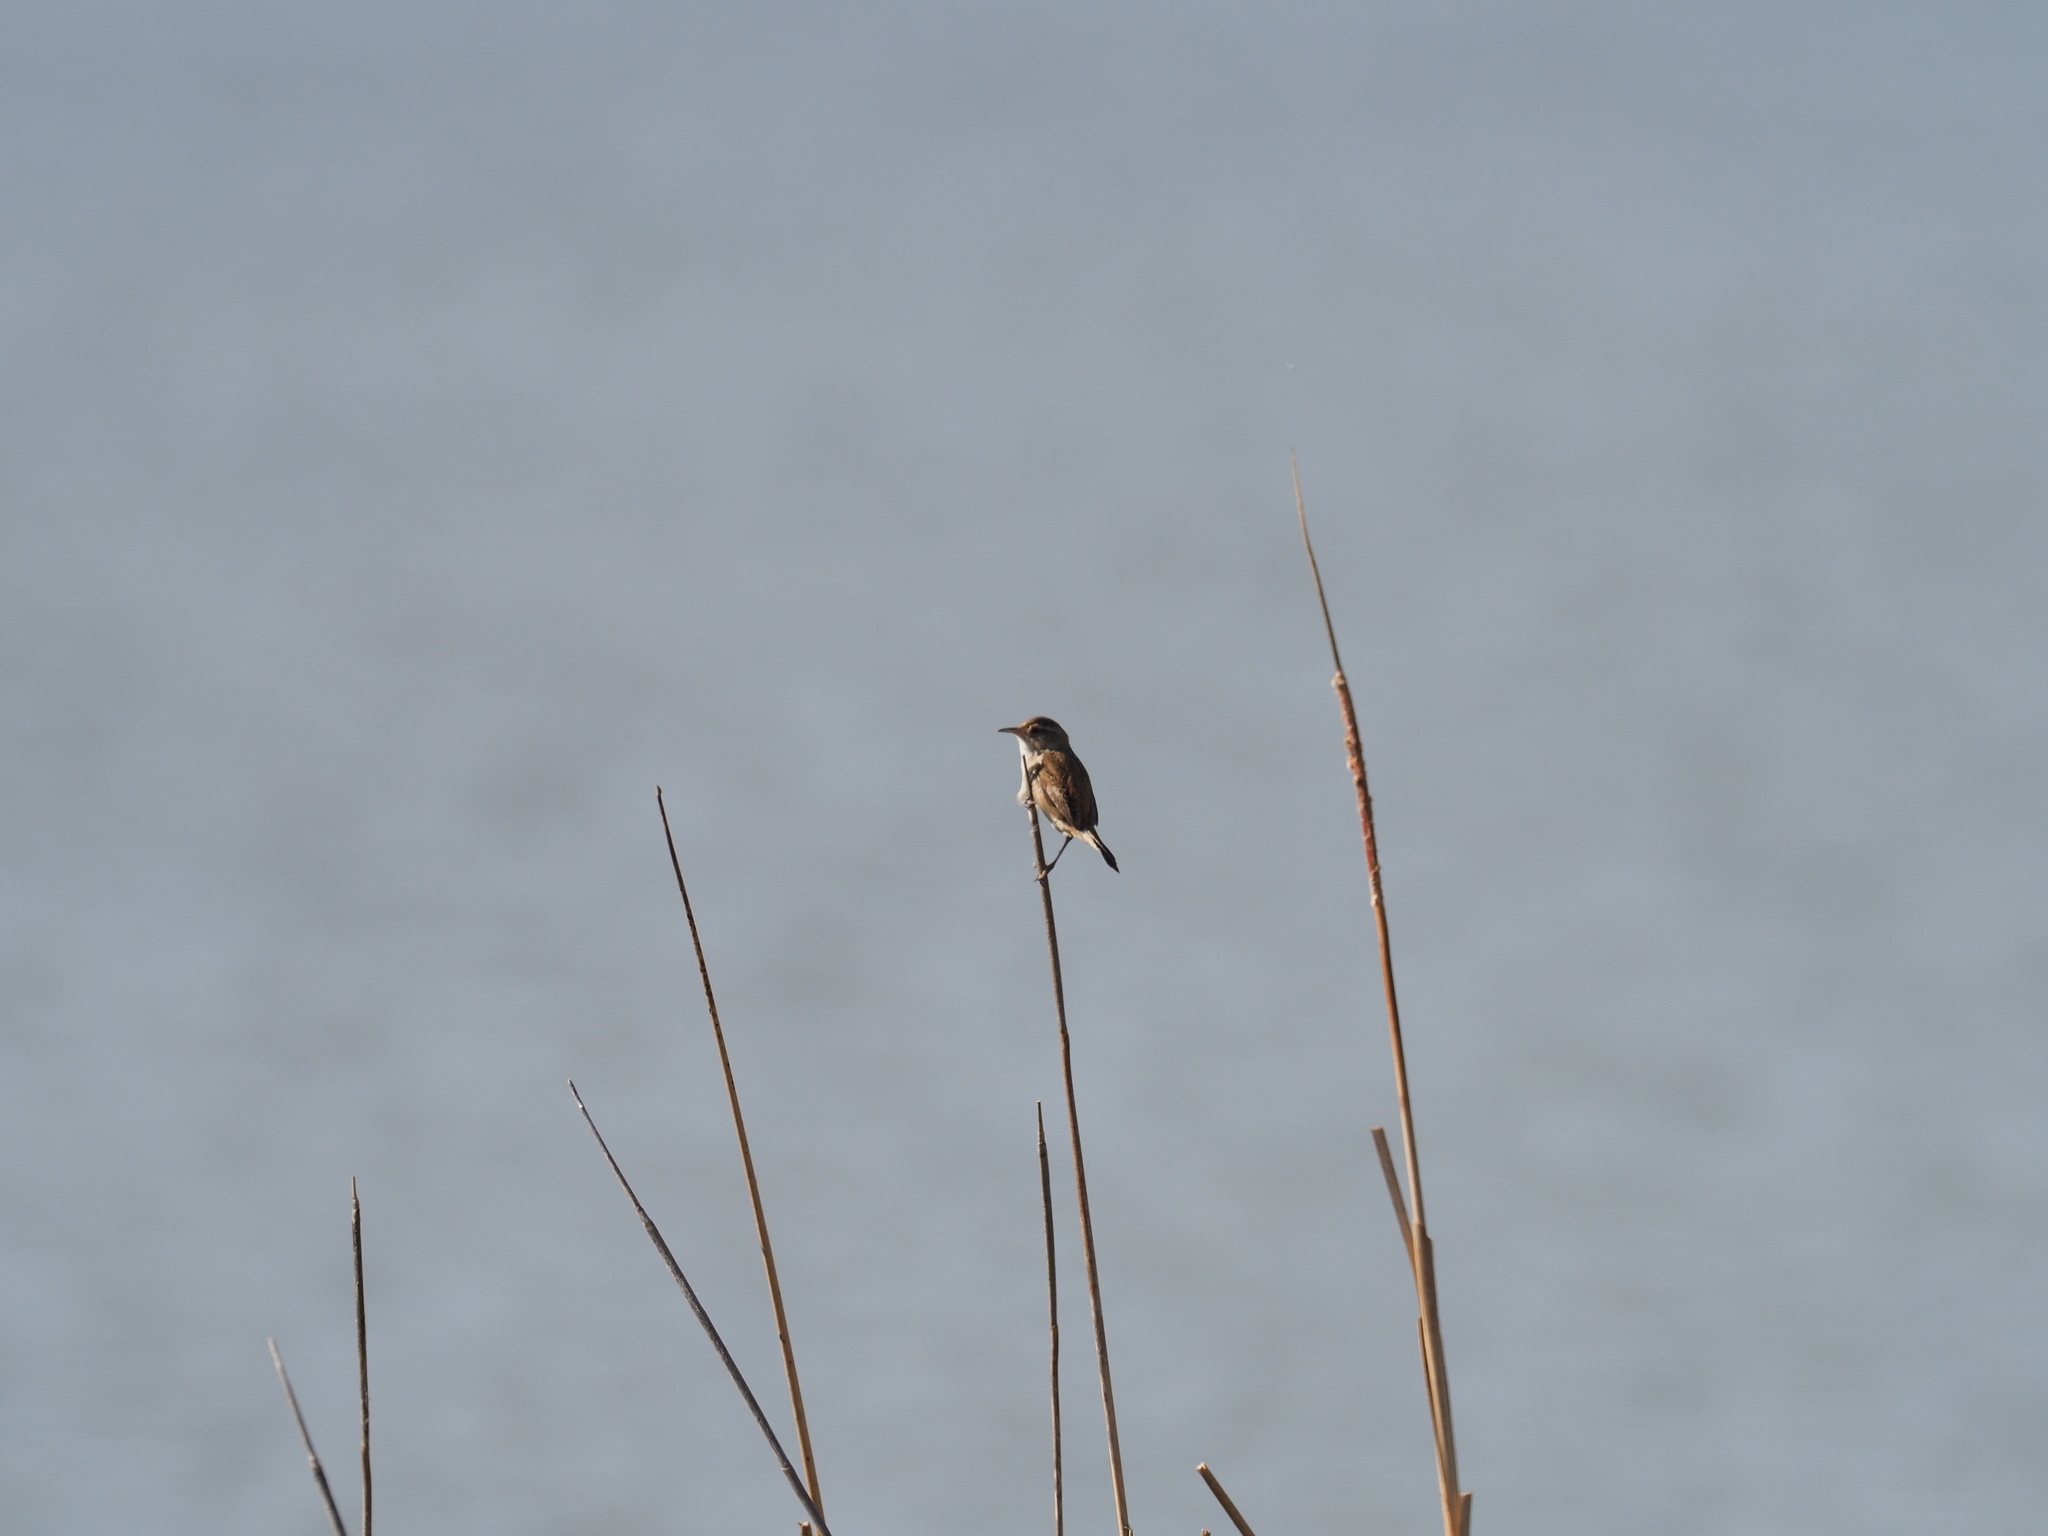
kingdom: Animalia
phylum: Chordata
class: Aves
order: Passeriformes
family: Troglodytidae
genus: Cistothorus
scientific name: Cistothorus palustris
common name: Marsh wren
